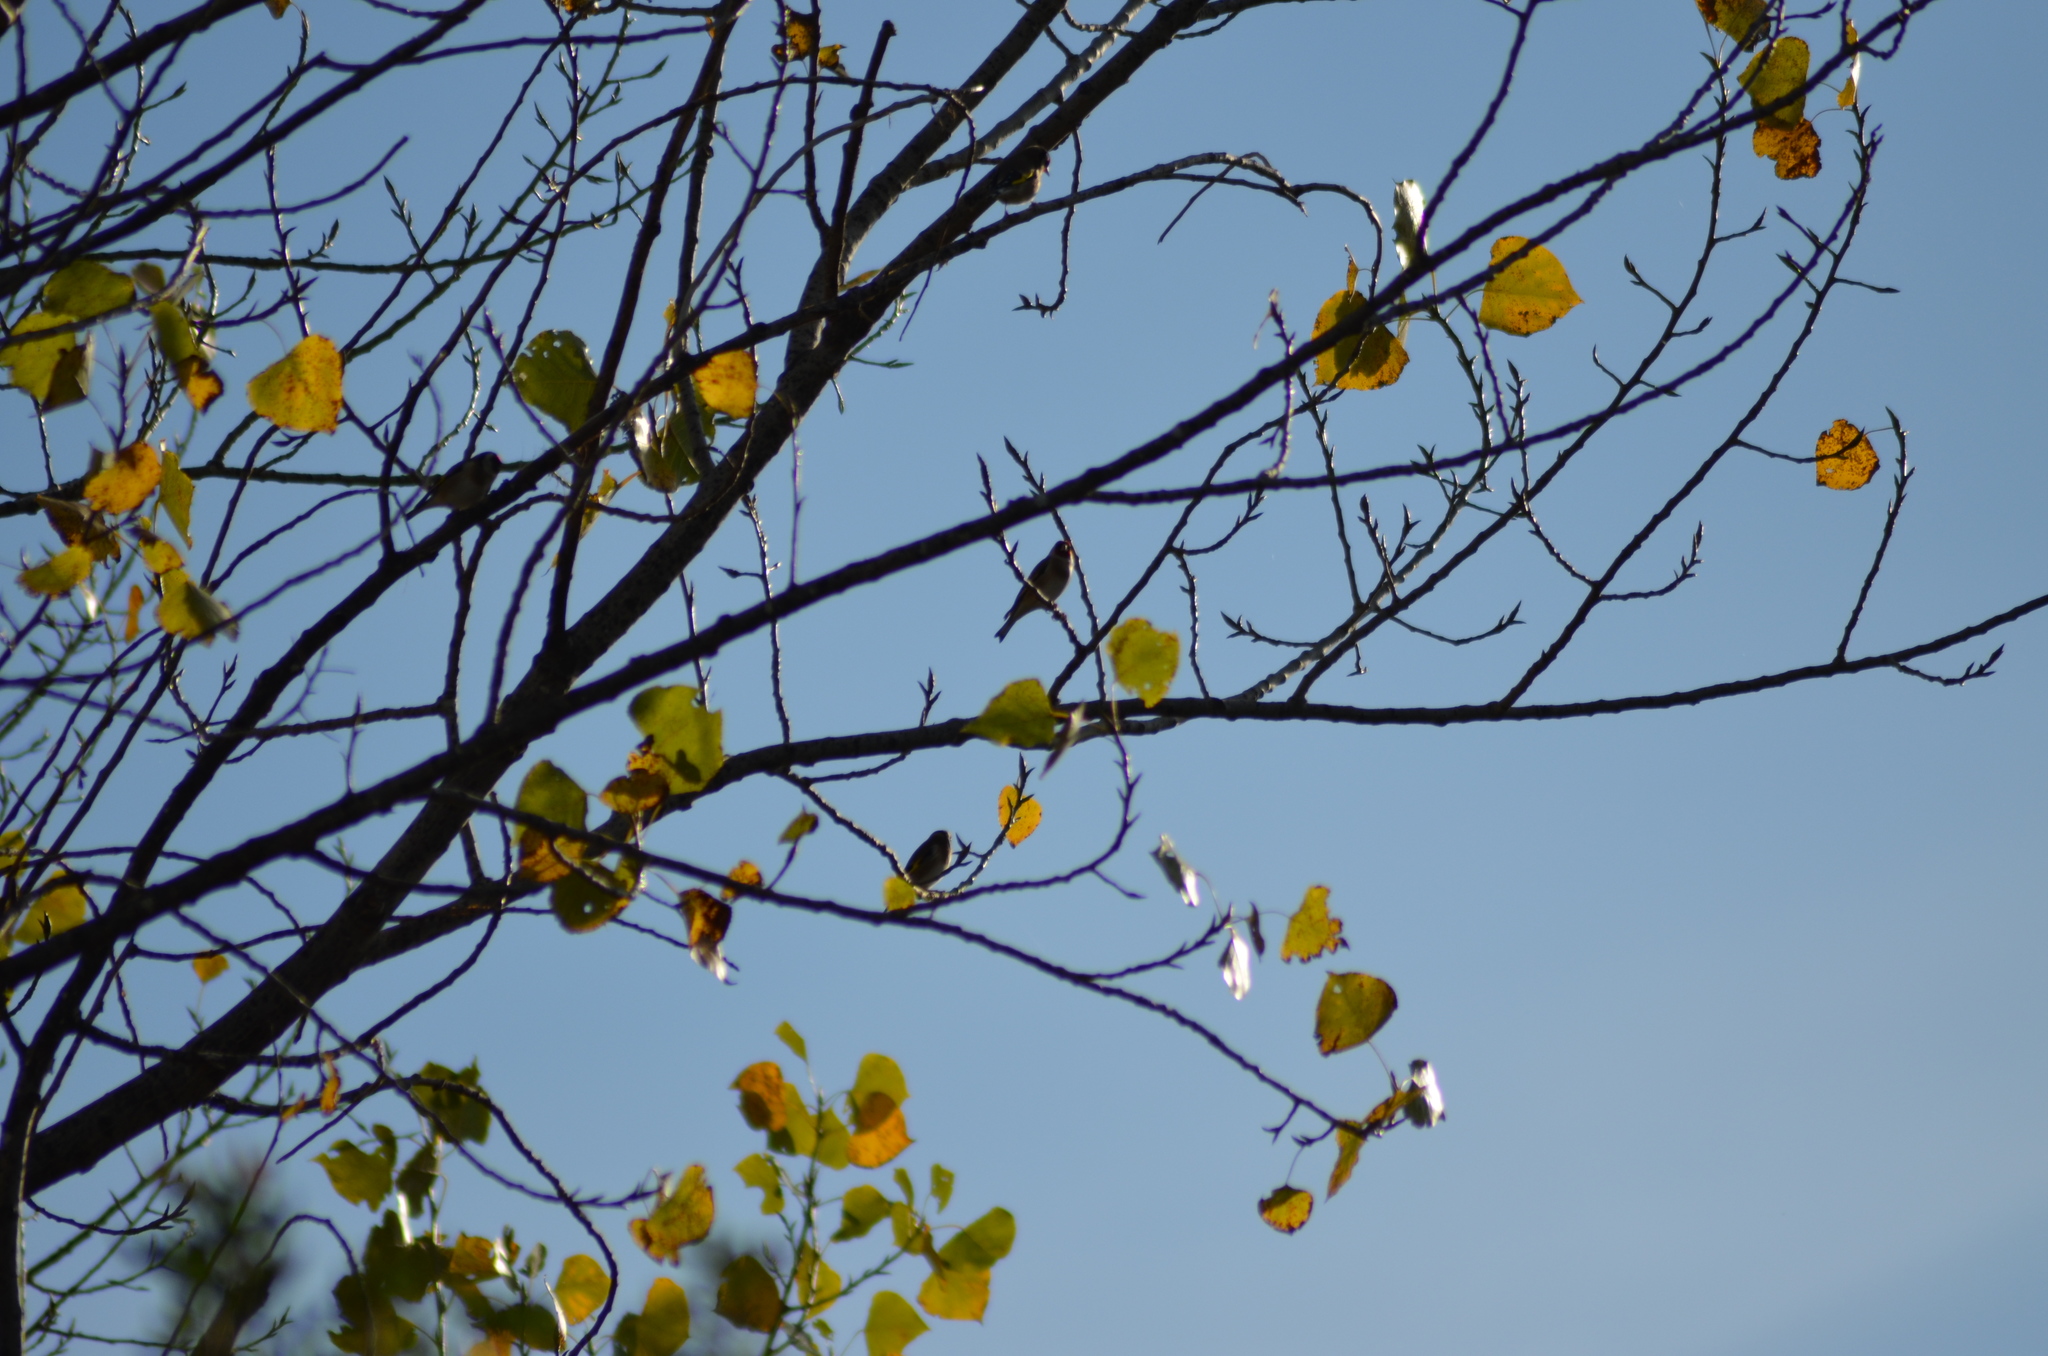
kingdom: Animalia
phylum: Chordata
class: Aves
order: Passeriformes
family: Fringillidae
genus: Carduelis
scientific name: Carduelis carduelis
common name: European goldfinch
